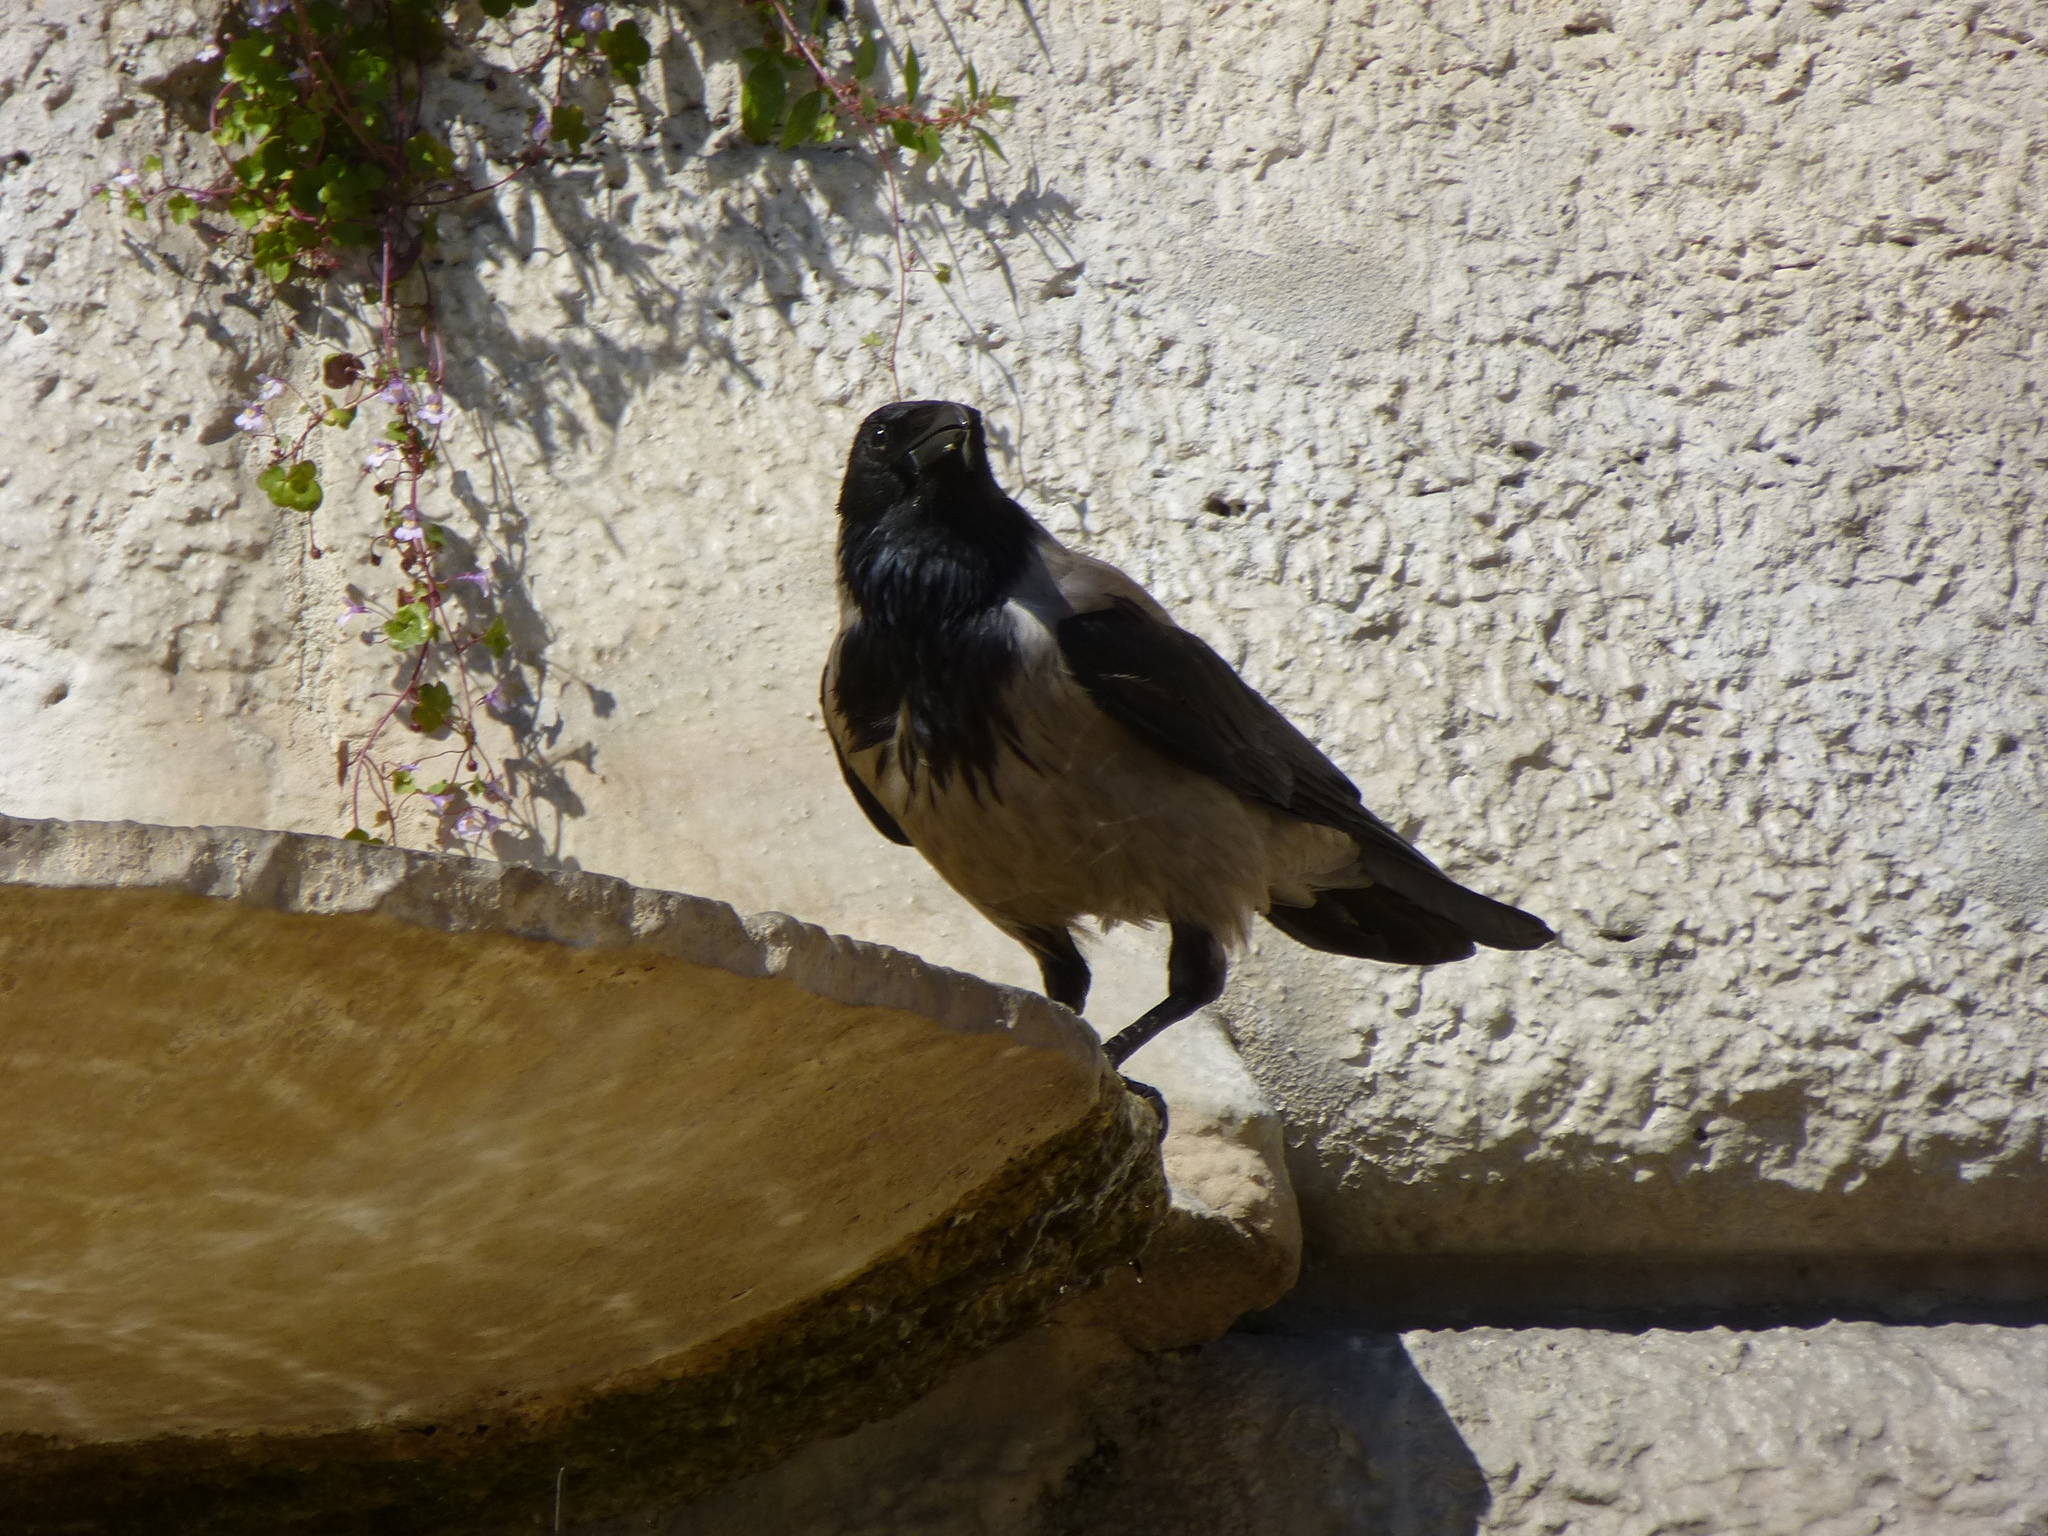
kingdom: Animalia
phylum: Chordata
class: Aves
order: Passeriformes
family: Corvidae
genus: Corvus
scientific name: Corvus cornix
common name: Hooded crow
